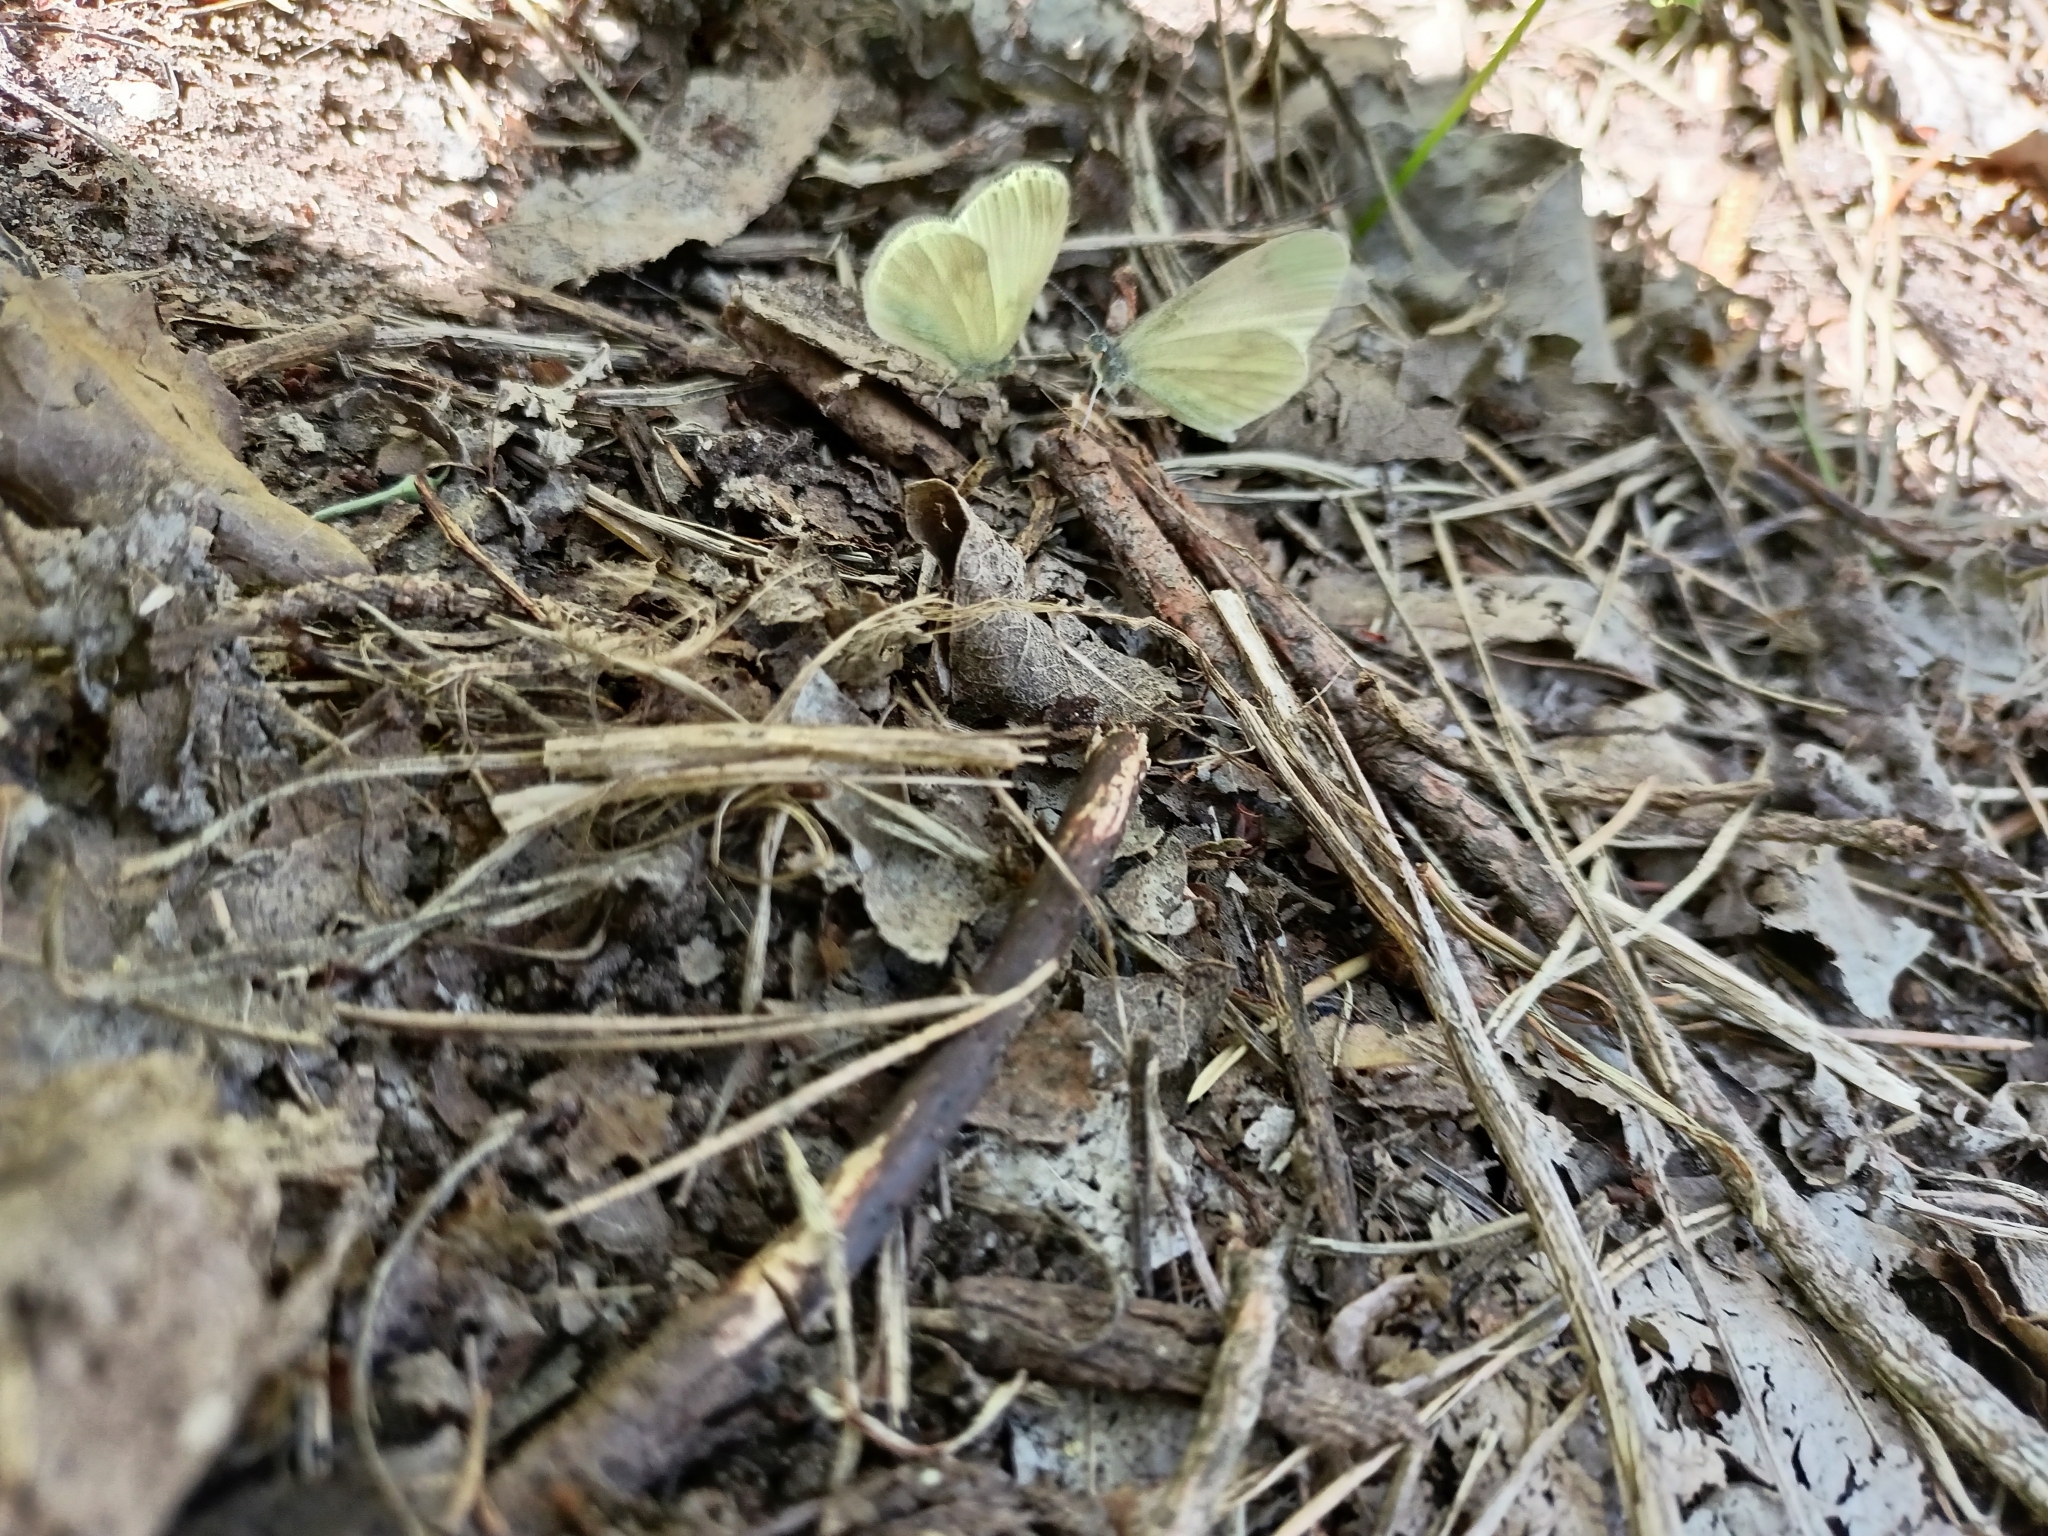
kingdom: Animalia
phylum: Arthropoda
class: Insecta
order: Lepidoptera
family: Pieridae
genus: Leptidea
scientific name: Leptidea
